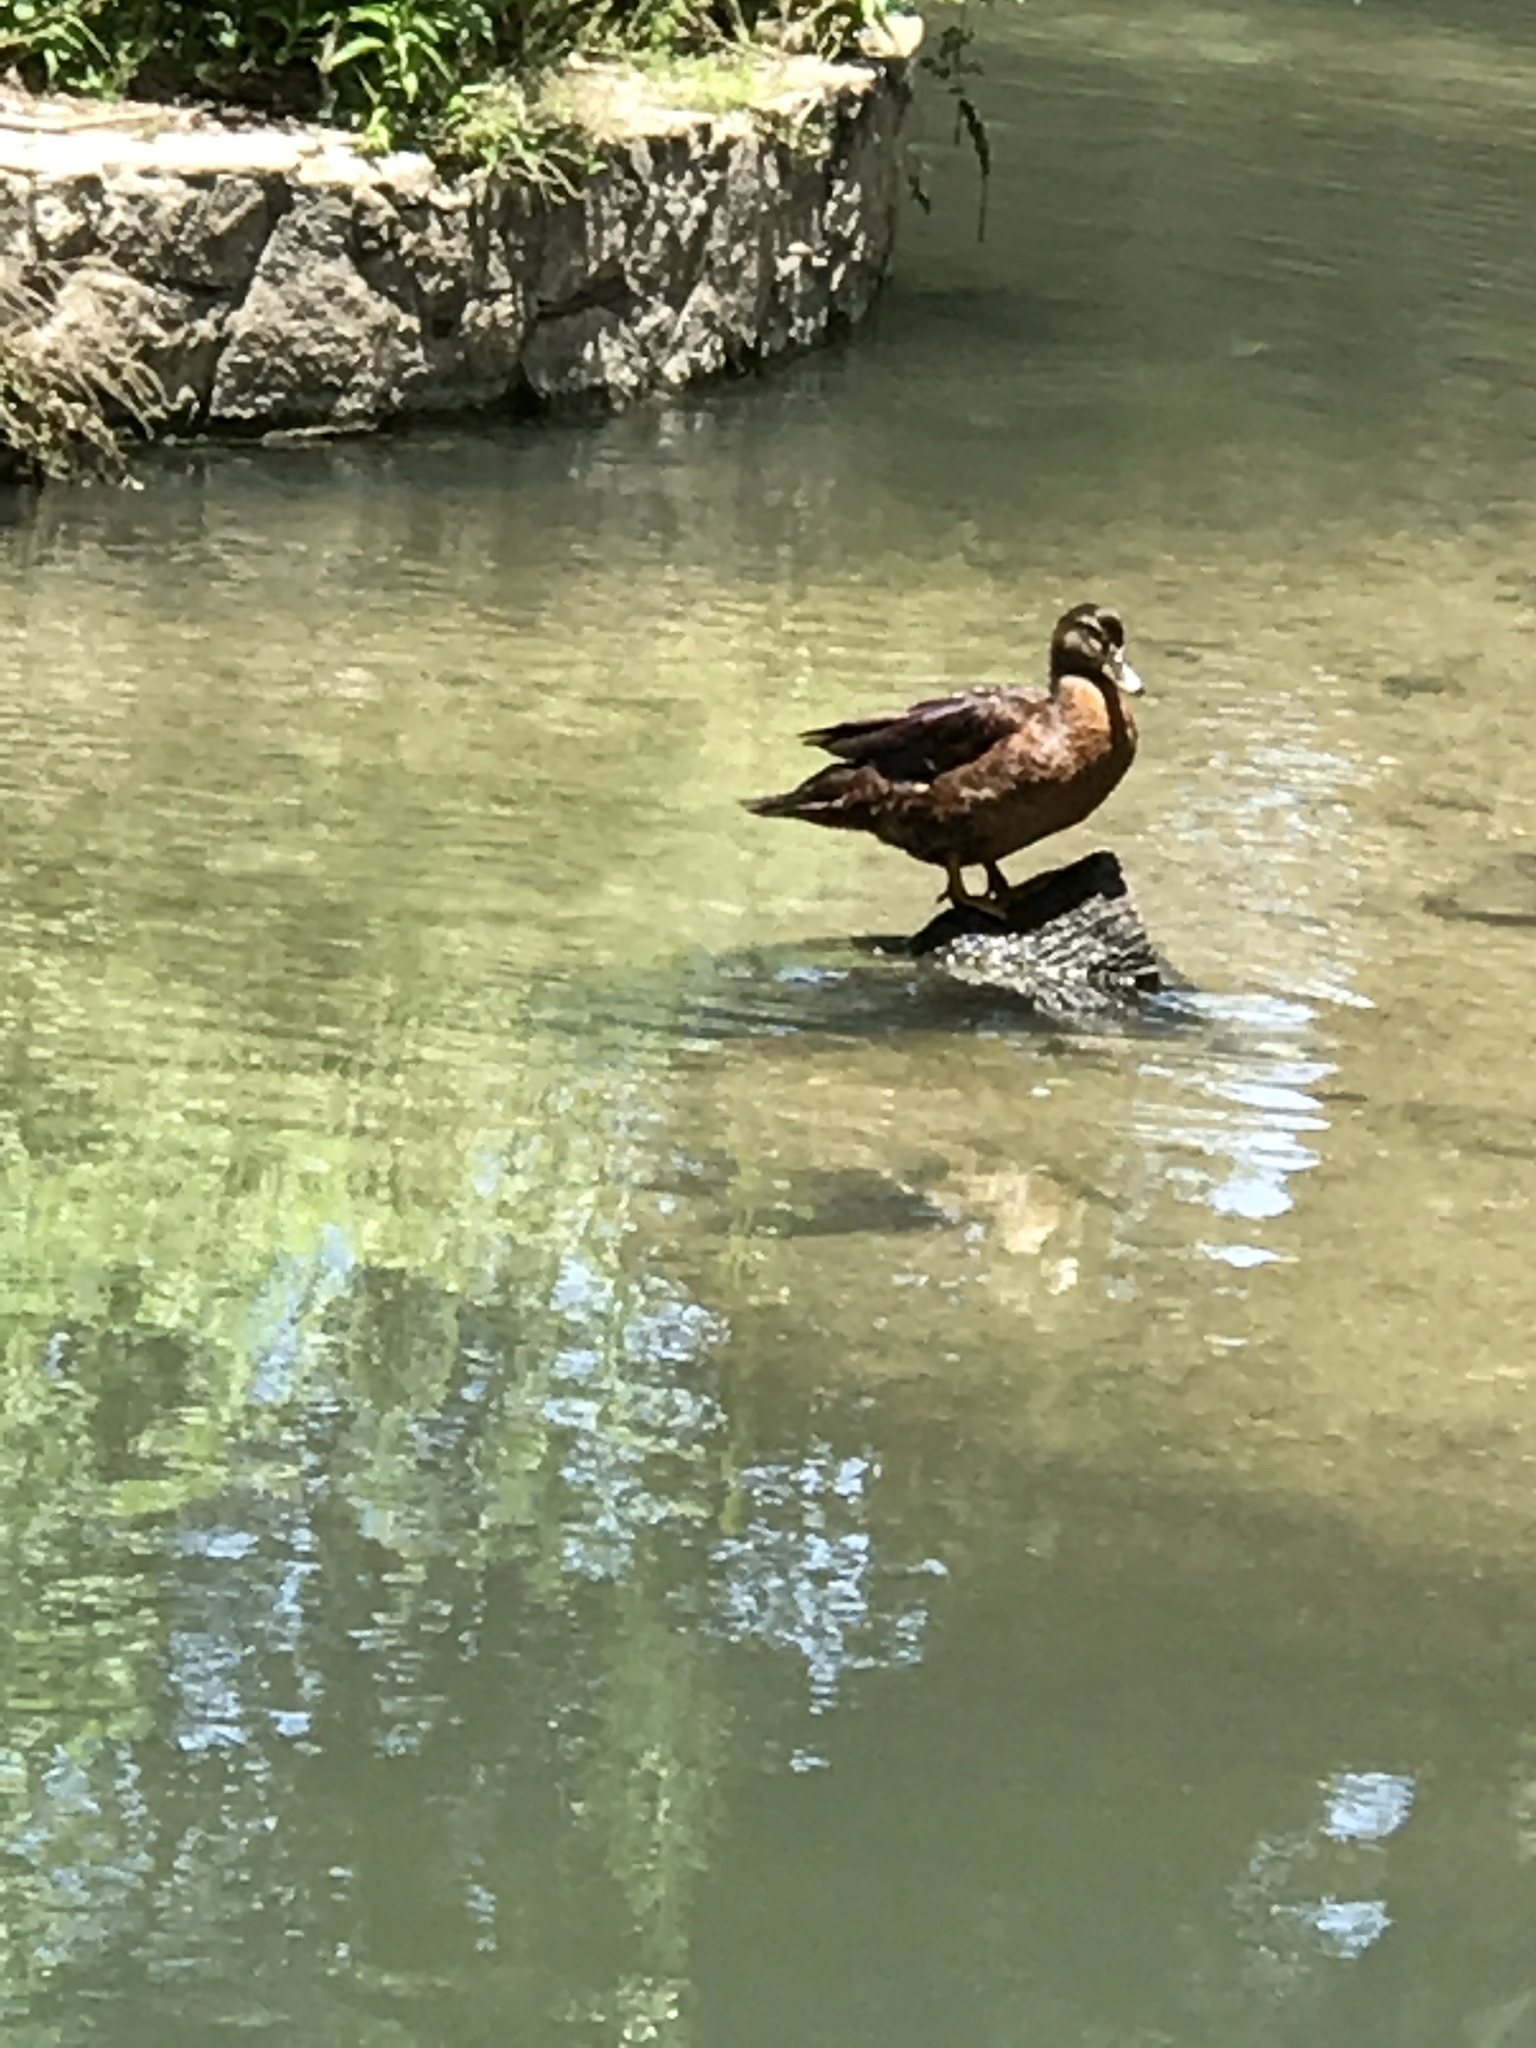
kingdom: Animalia
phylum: Chordata
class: Aves
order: Anseriformes
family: Anatidae
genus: Anas
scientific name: Anas platyrhynchos
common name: Mallard
